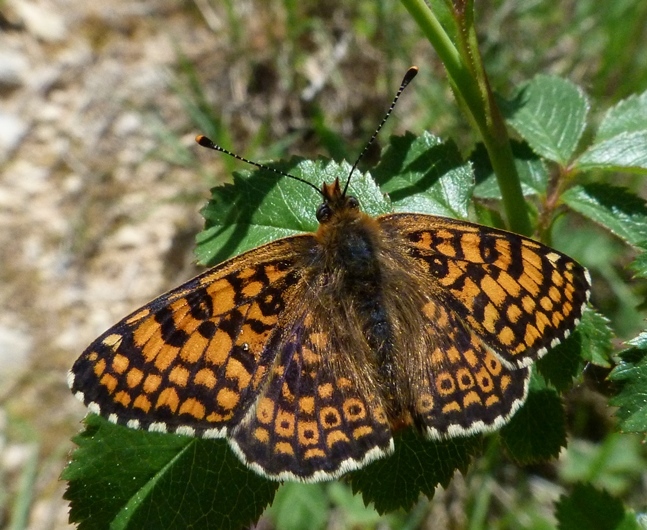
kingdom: Animalia
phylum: Arthropoda
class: Insecta
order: Lepidoptera
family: Nymphalidae
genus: Melitaea
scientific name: Melitaea cinxia
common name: Glanville fritillary
